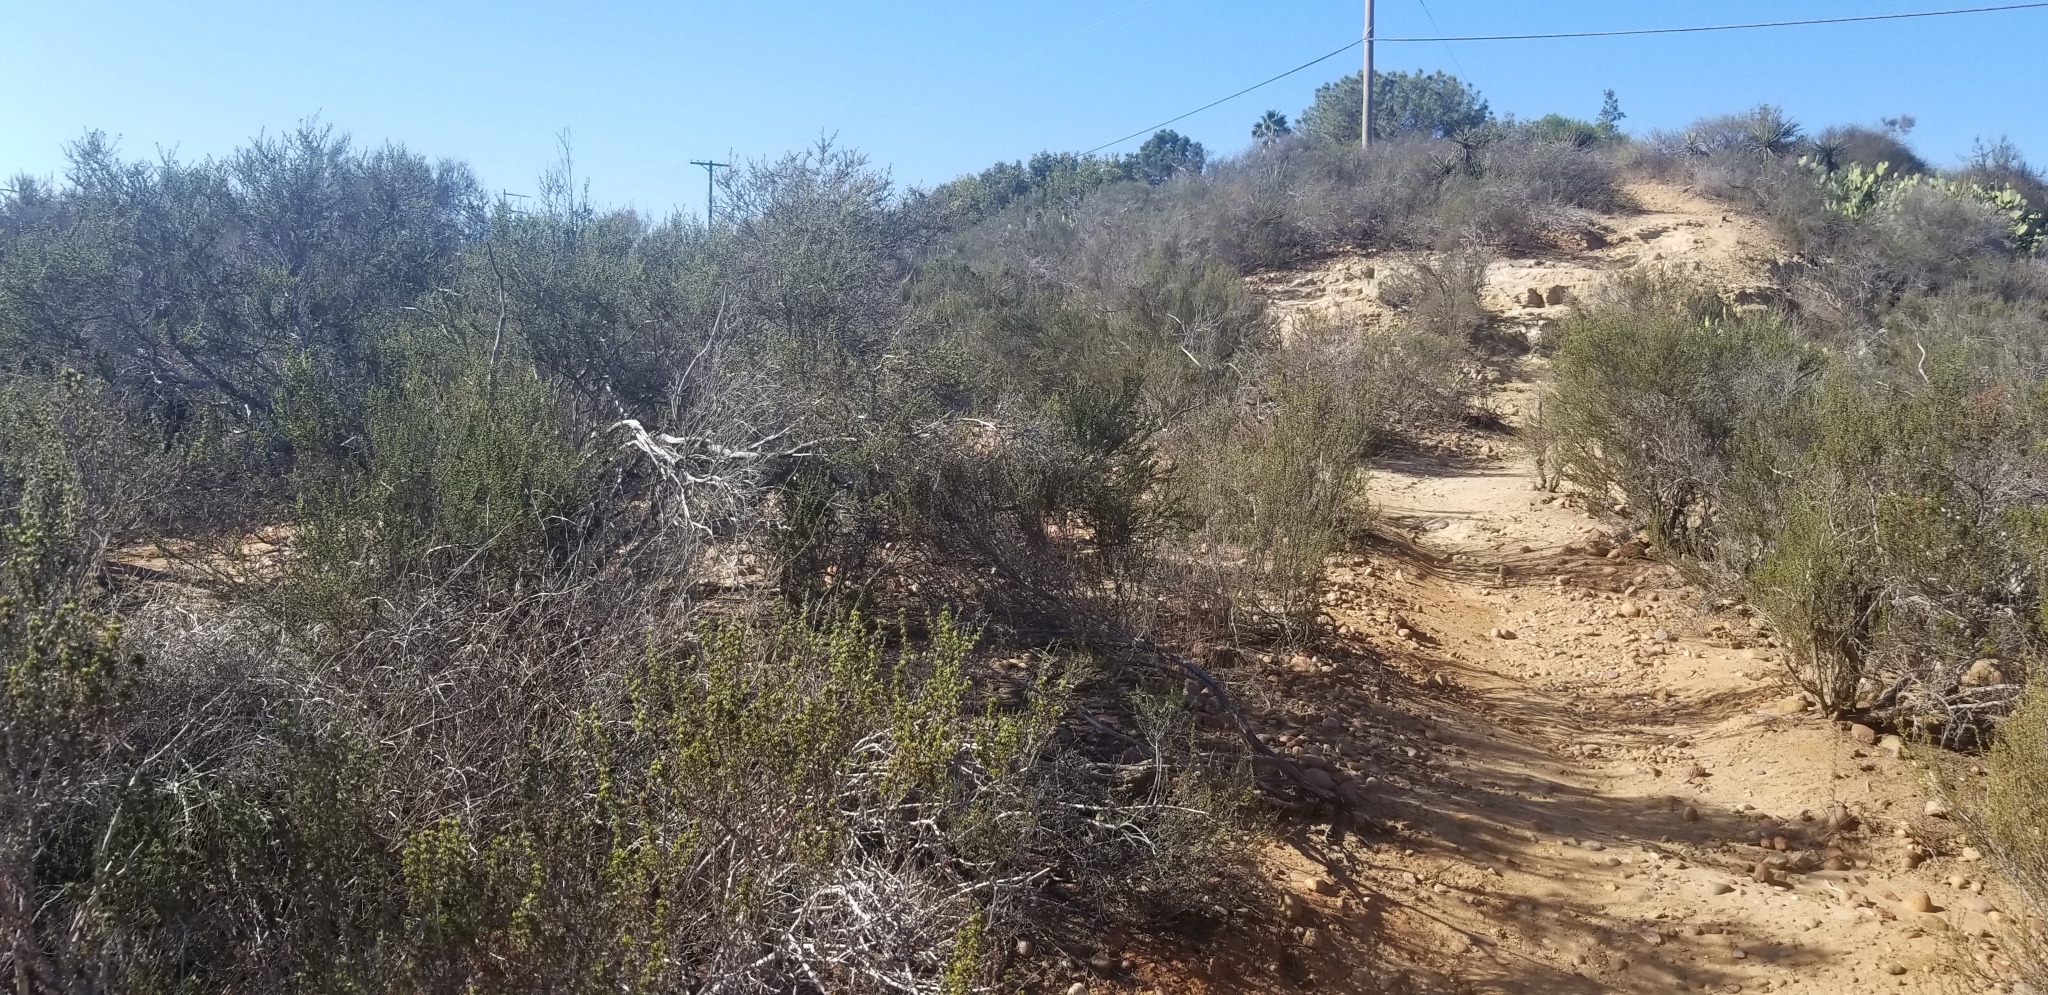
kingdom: Plantae
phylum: Tracheophyta
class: Magnoliopsida
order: Rosales
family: Rosaceae
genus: Adenostoma
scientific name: Adenostoma fasciculatum
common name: Chamise
